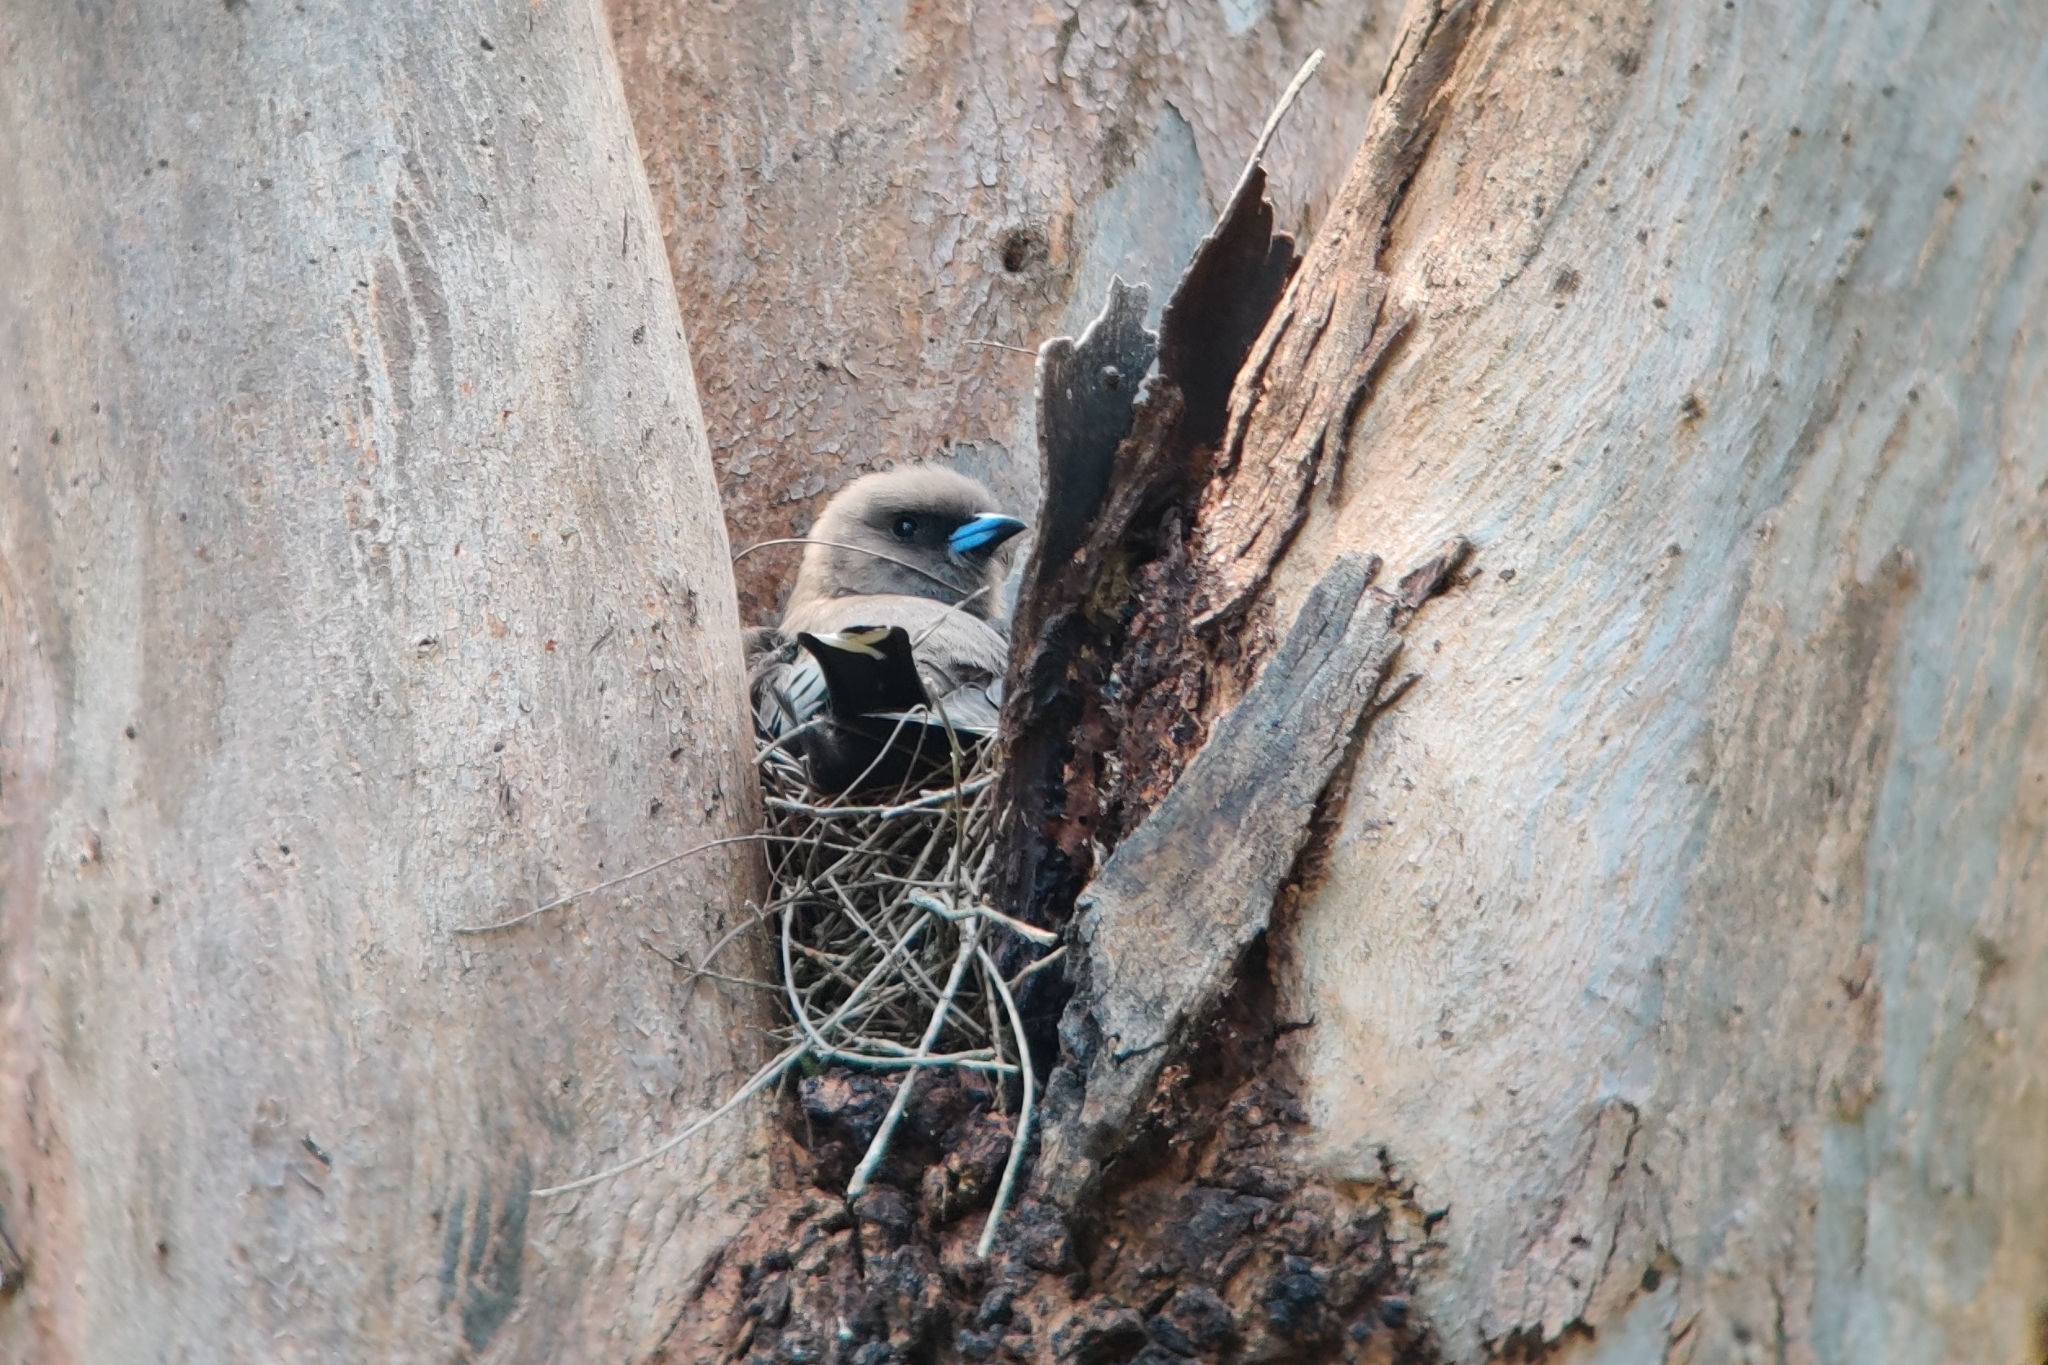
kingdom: Animalia
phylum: Chordata
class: Aves
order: Passeriformes
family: Artamidae
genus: Artamus
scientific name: Artamus cyanopterus
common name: Dusky woodswallow
